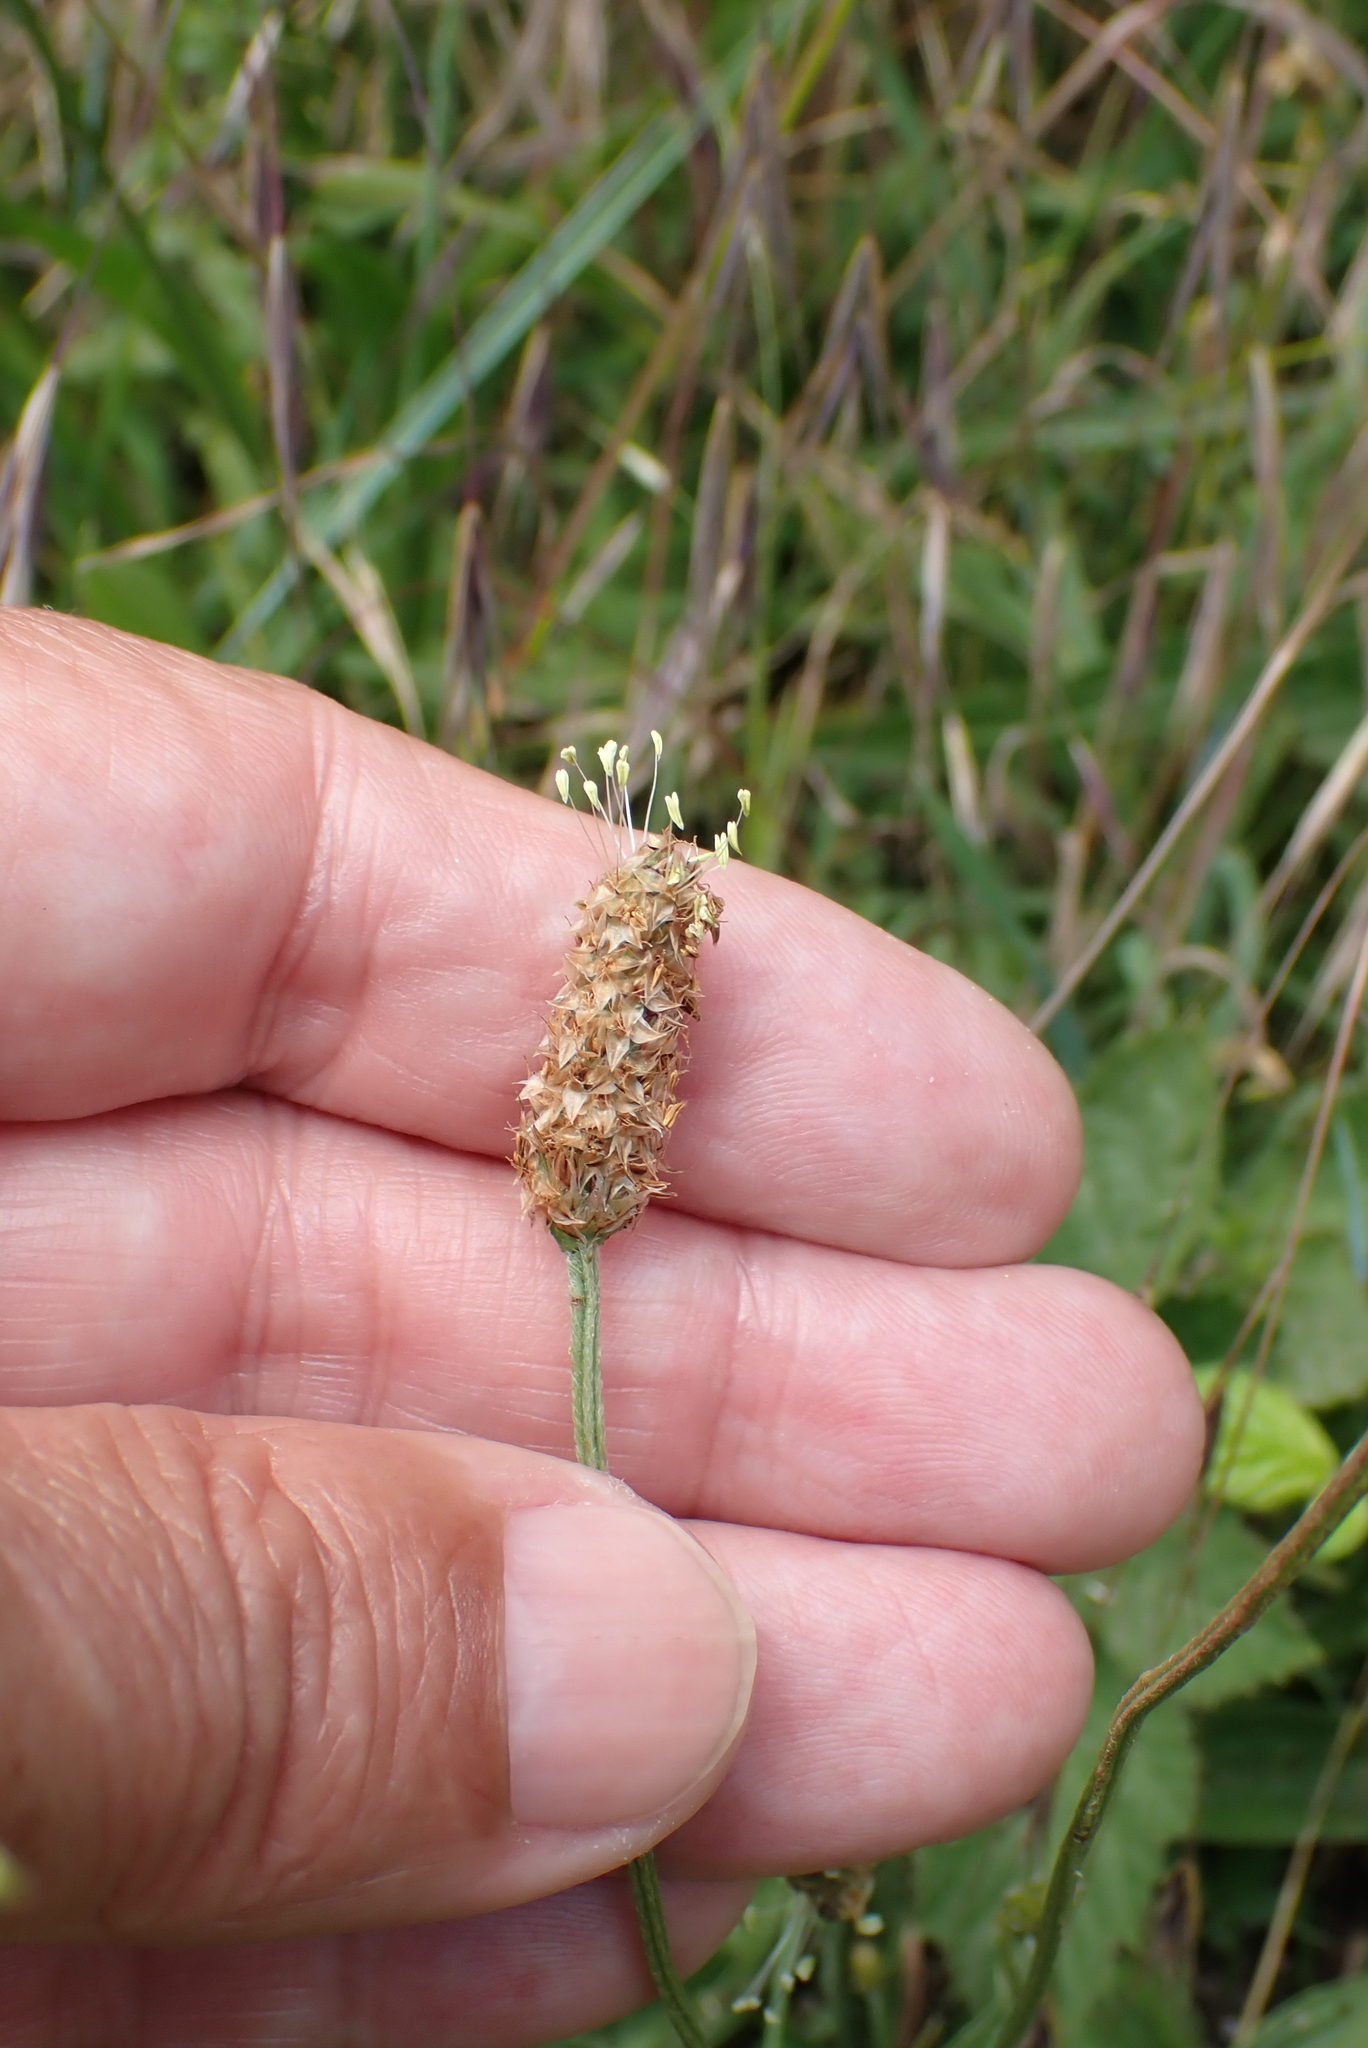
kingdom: Plantae
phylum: Tracheophyta
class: Magnoliopsida
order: Lamiales
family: Plantaginaceae
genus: Plantago
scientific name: Plantago lanceolata
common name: Ribwort plantain
